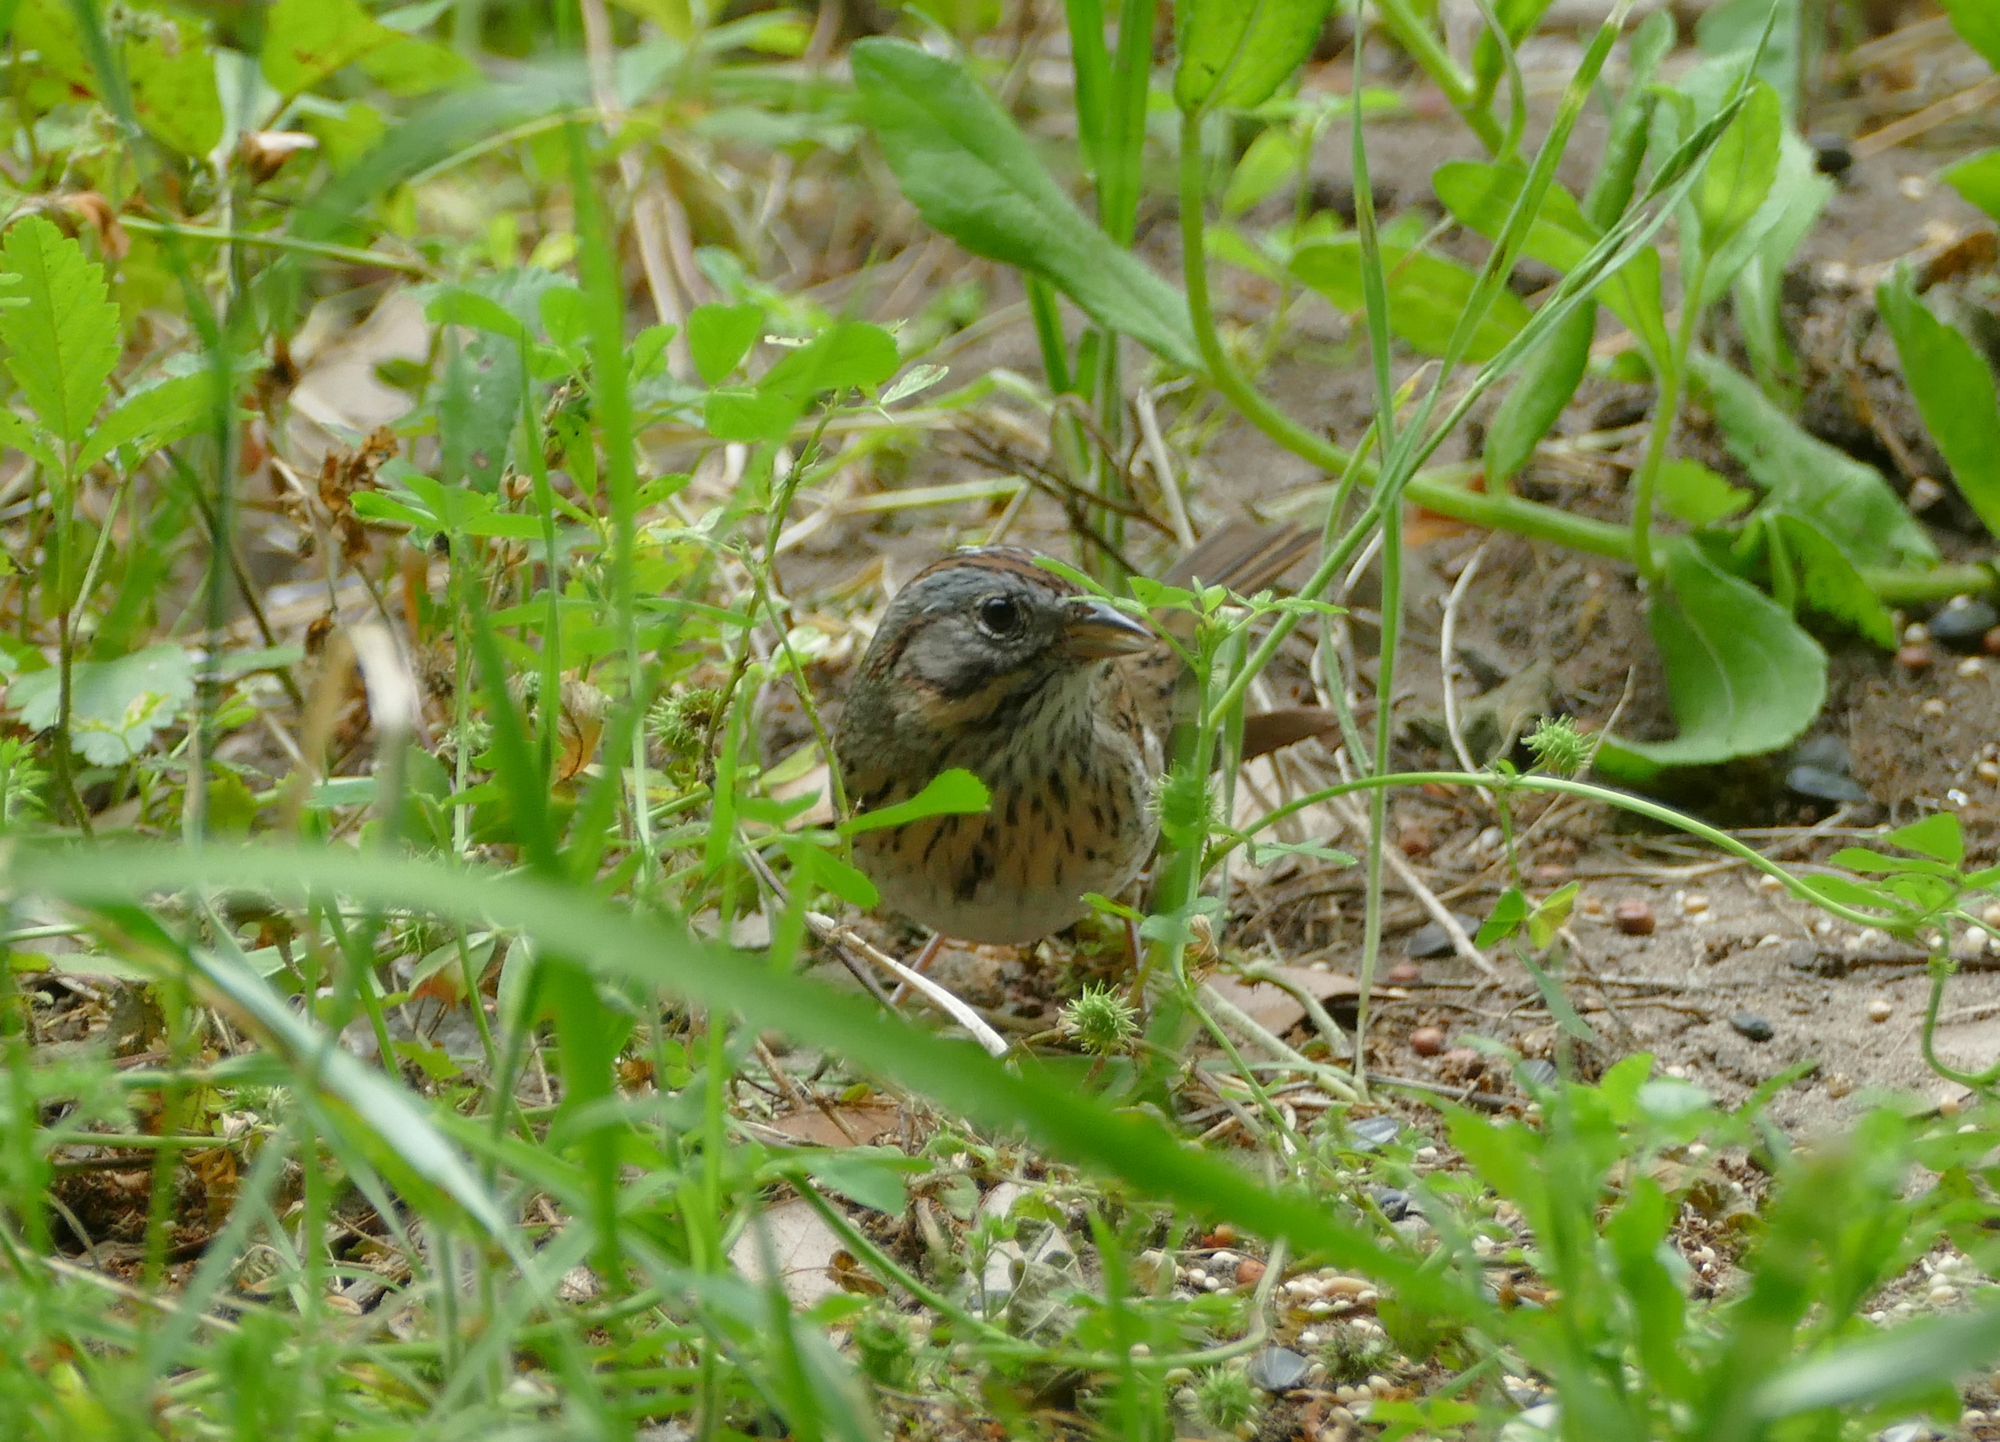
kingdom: Animalia
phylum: Chordata
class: Aves
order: Passeriformes
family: Passerellidae
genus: Melospiza
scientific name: Melospiza lincolnii
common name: Lincoln's sparrow
